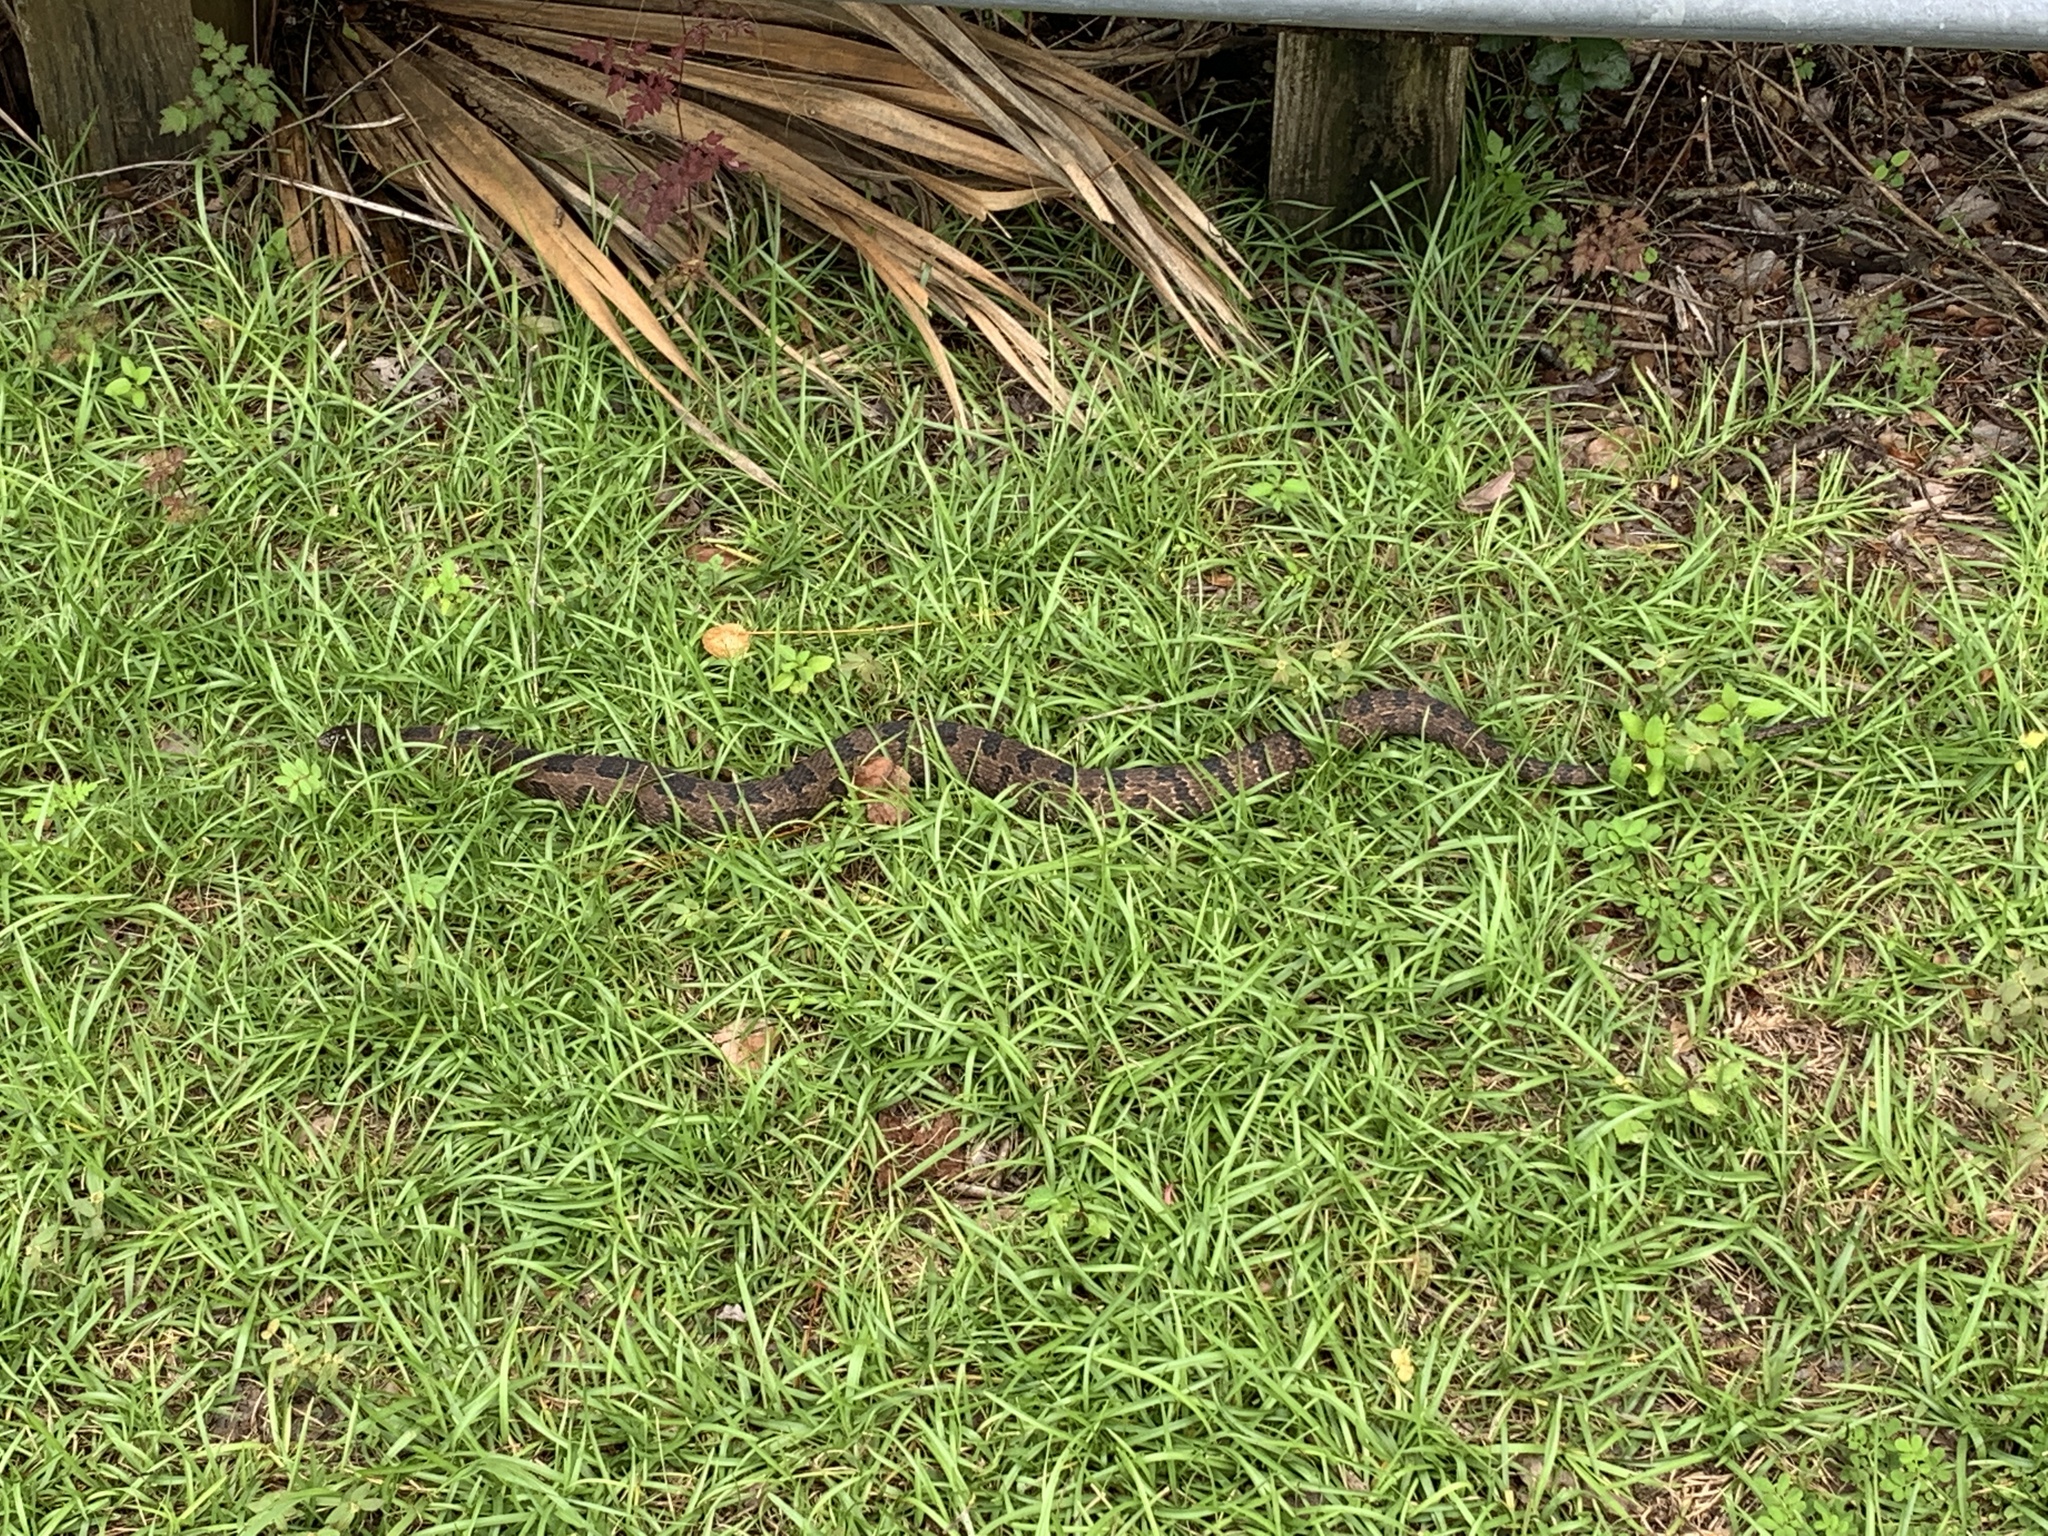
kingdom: Animalia
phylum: Chordata
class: Squamata
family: Colubridae
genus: Nerodia
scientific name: Nerodia taxispilota
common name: Brown water snake
